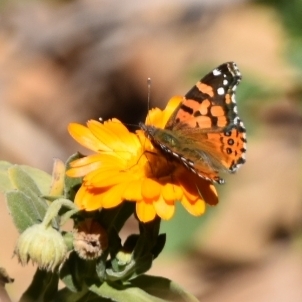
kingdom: Animalia
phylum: Arthropoda
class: Insecta
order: Lepidoptera
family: Nymphalidae
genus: Vanessa
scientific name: Vanessa carye
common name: Subtropical lady
